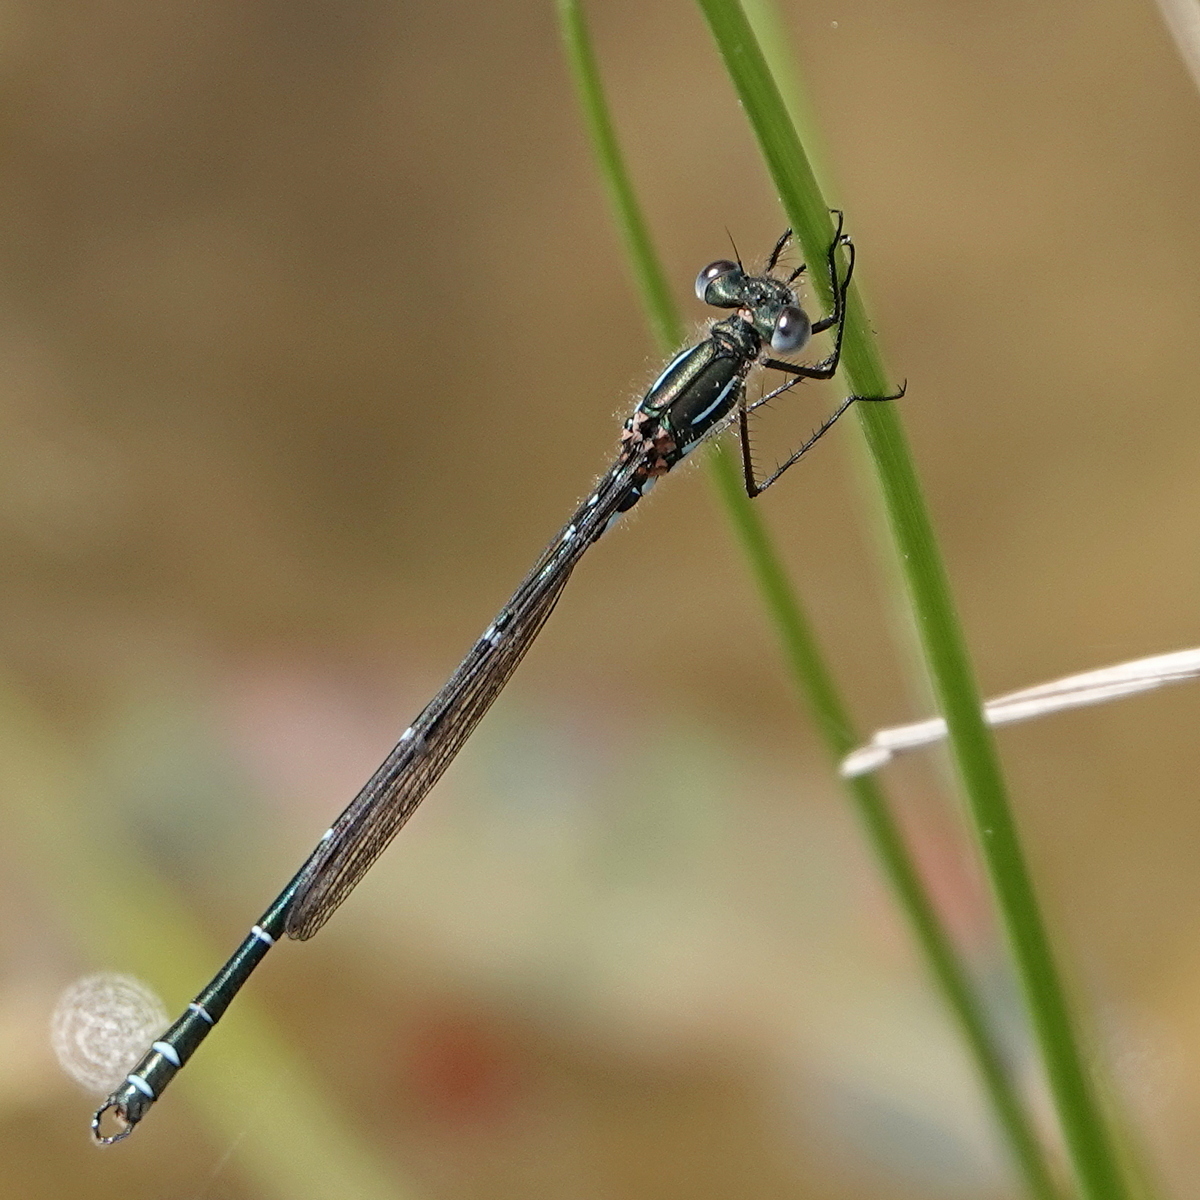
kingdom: Animalia
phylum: Arthropoda
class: Insecta
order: Odonata
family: Lestidae
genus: Austrolestes
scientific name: Austrolestes psyche
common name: Cup ringtail
